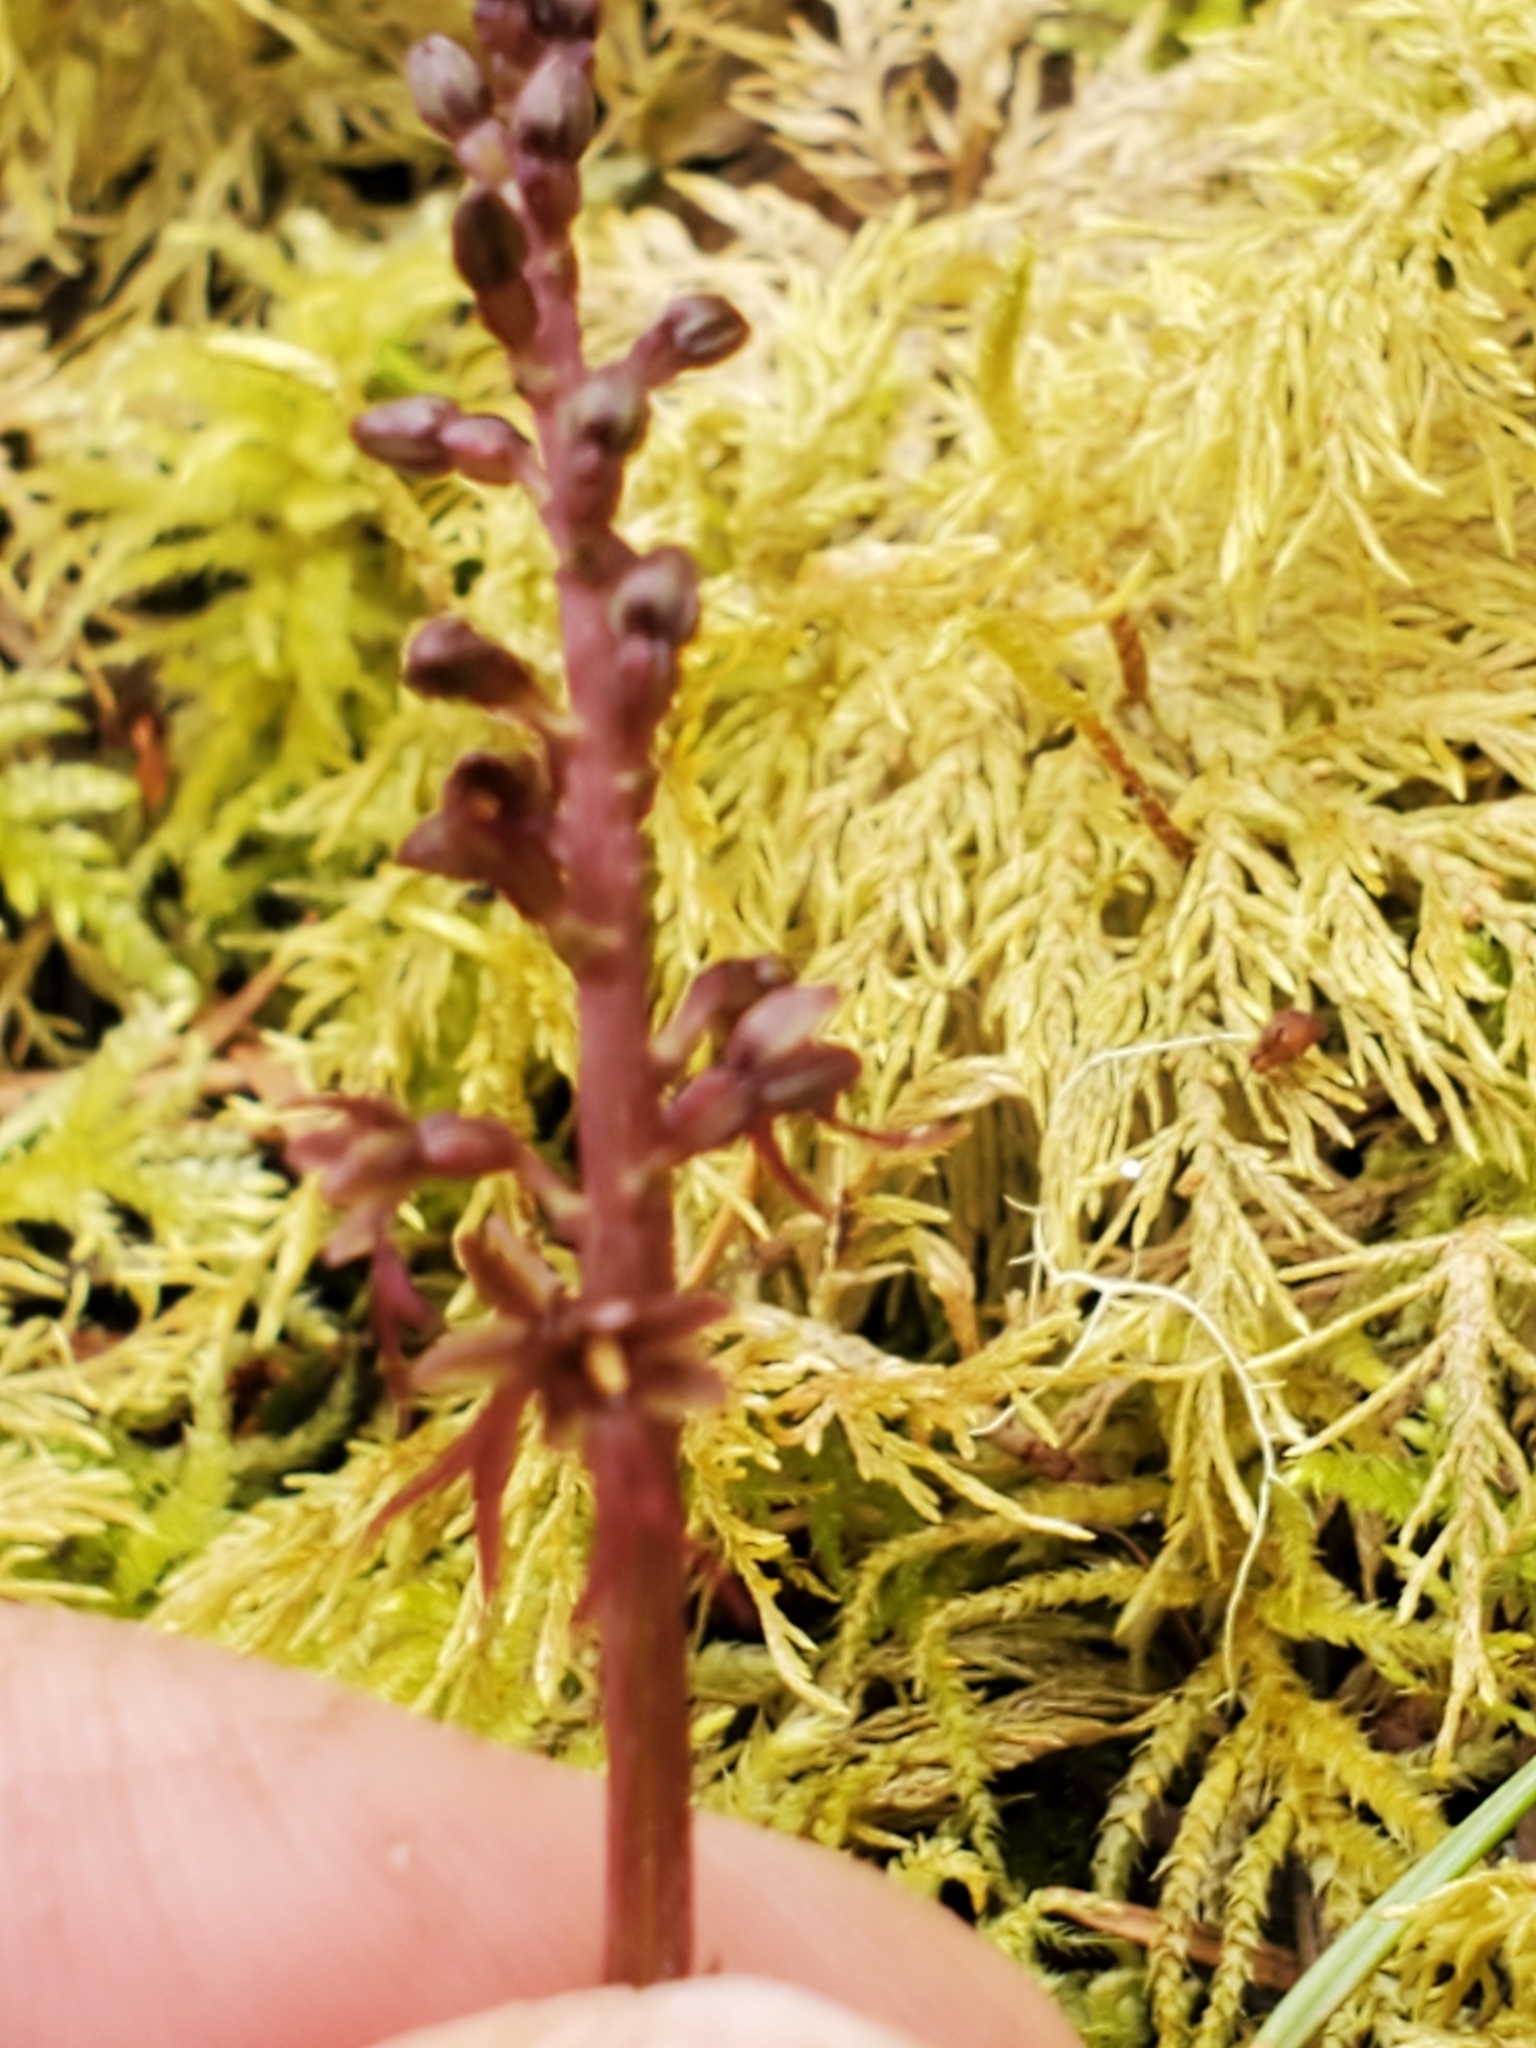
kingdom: Plantae
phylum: Tracheophyta
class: Liliopsida
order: Asparagales
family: Orchidaceae
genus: Neottia
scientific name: Neottia cordata
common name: Lesser twayblade
